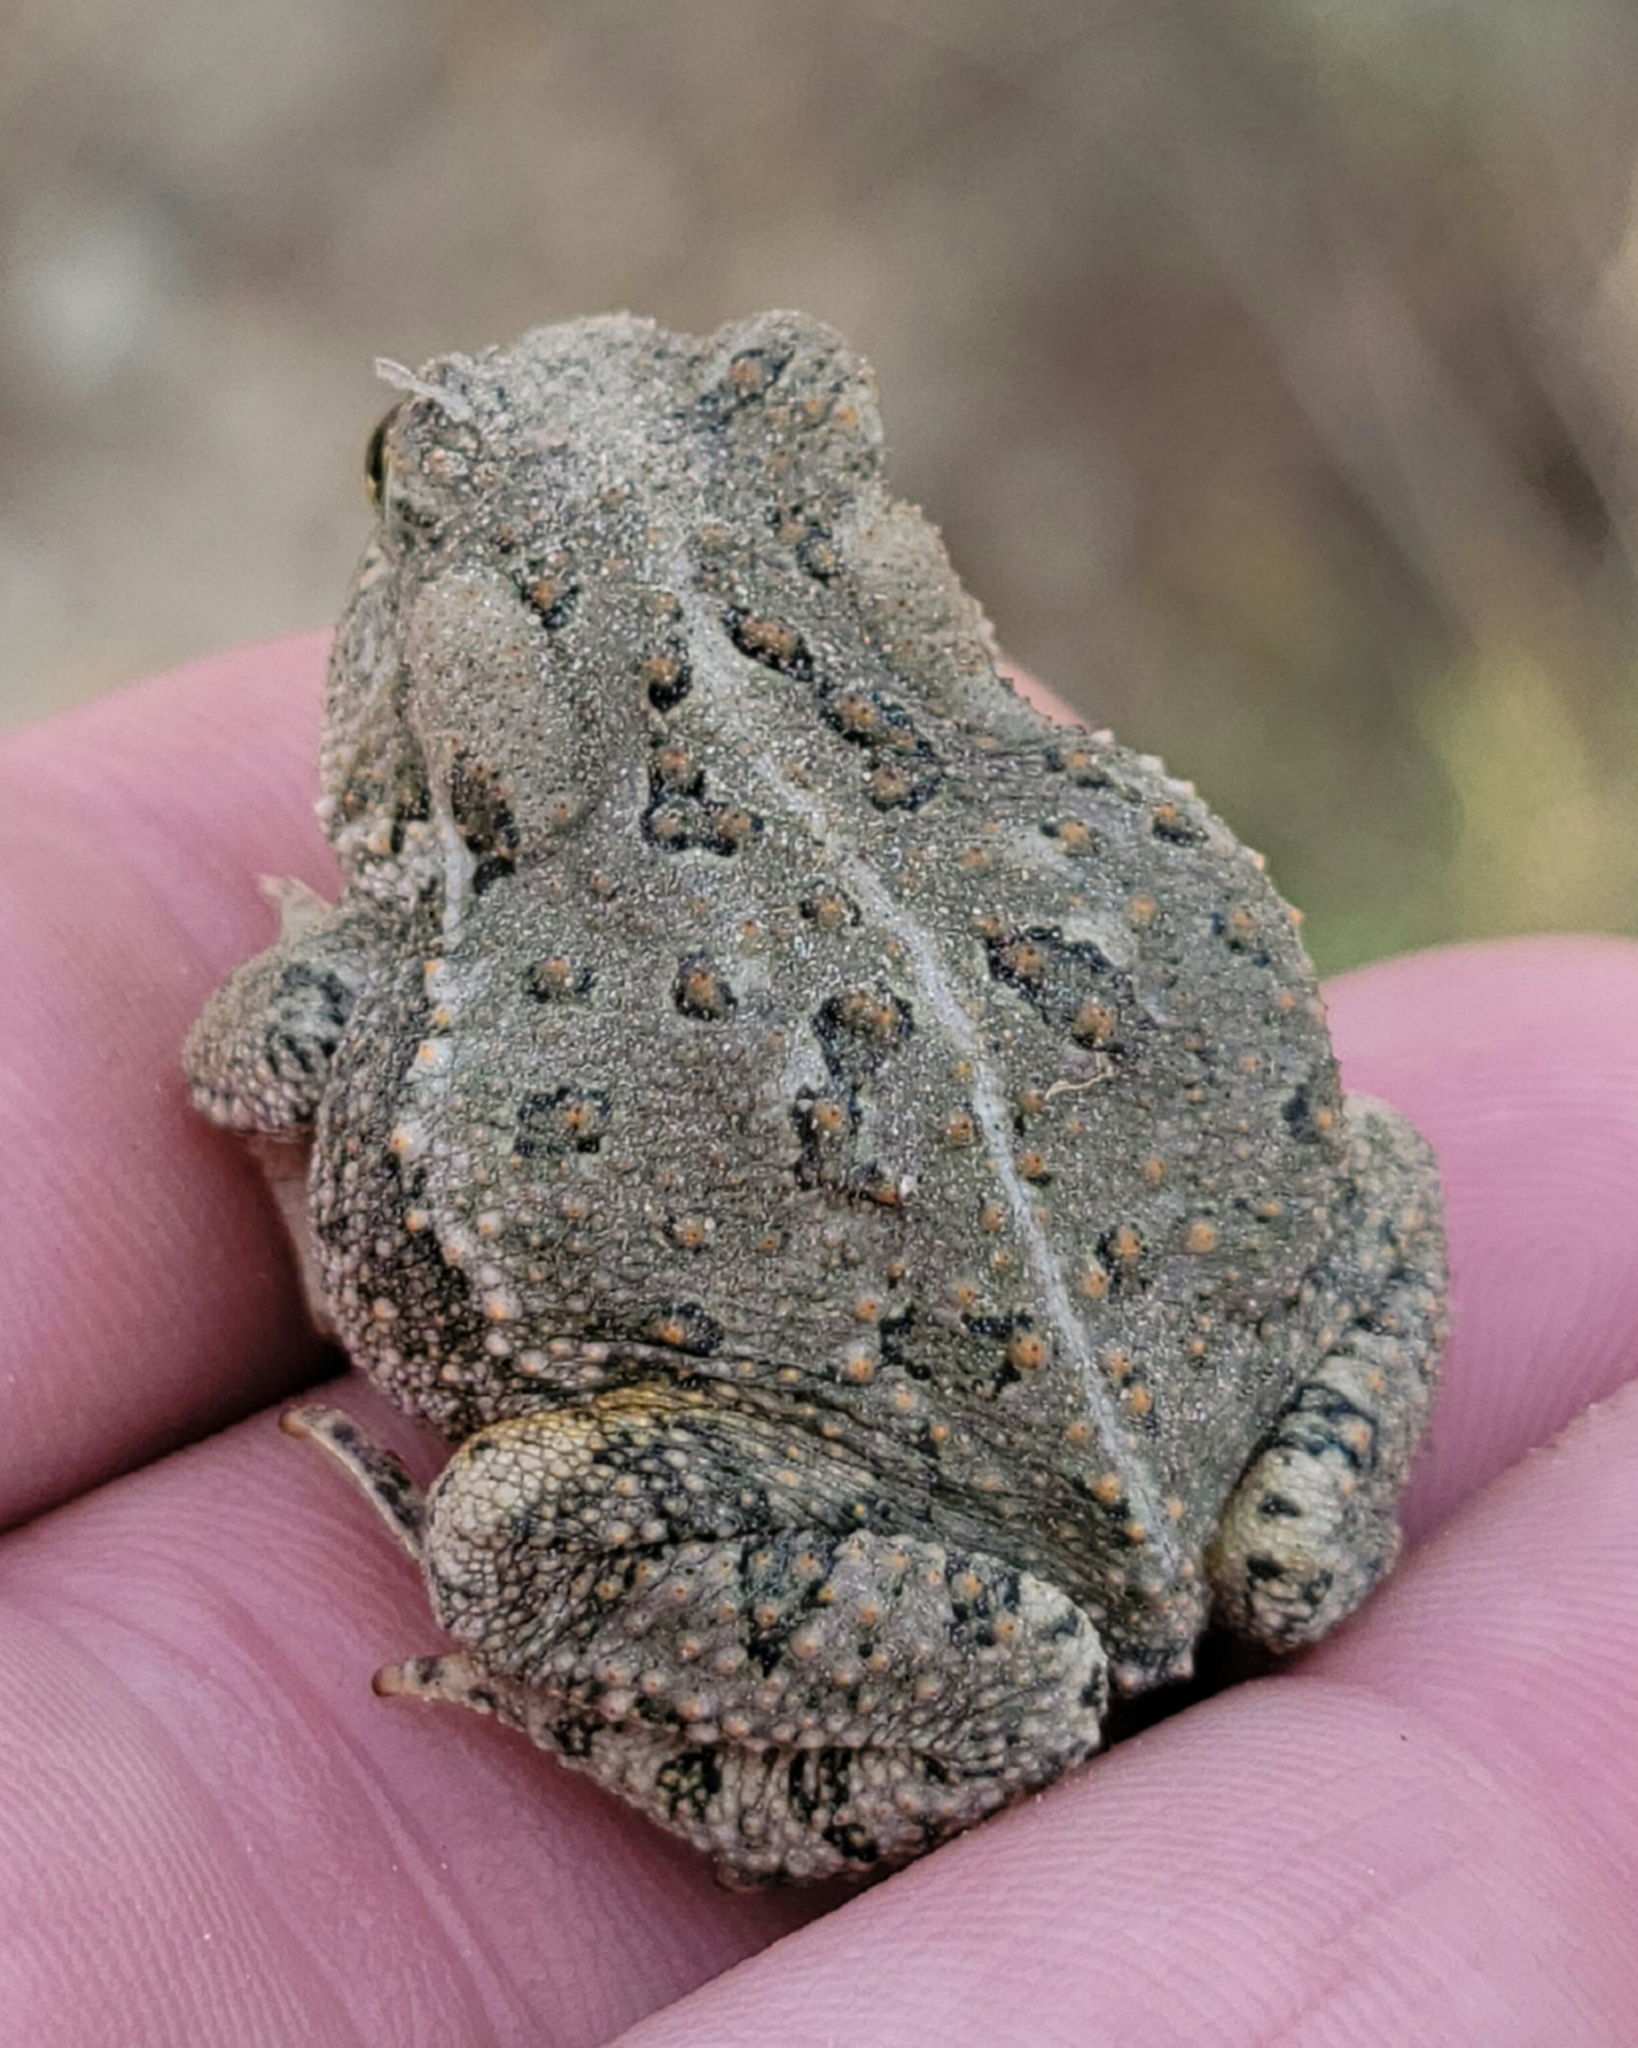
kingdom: Animalia
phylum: Chordata
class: Amphibia
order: Anura
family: Bufonidae
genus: Anaxyrus
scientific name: Anaxyrus woodhousii
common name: Woodhouse's toad
